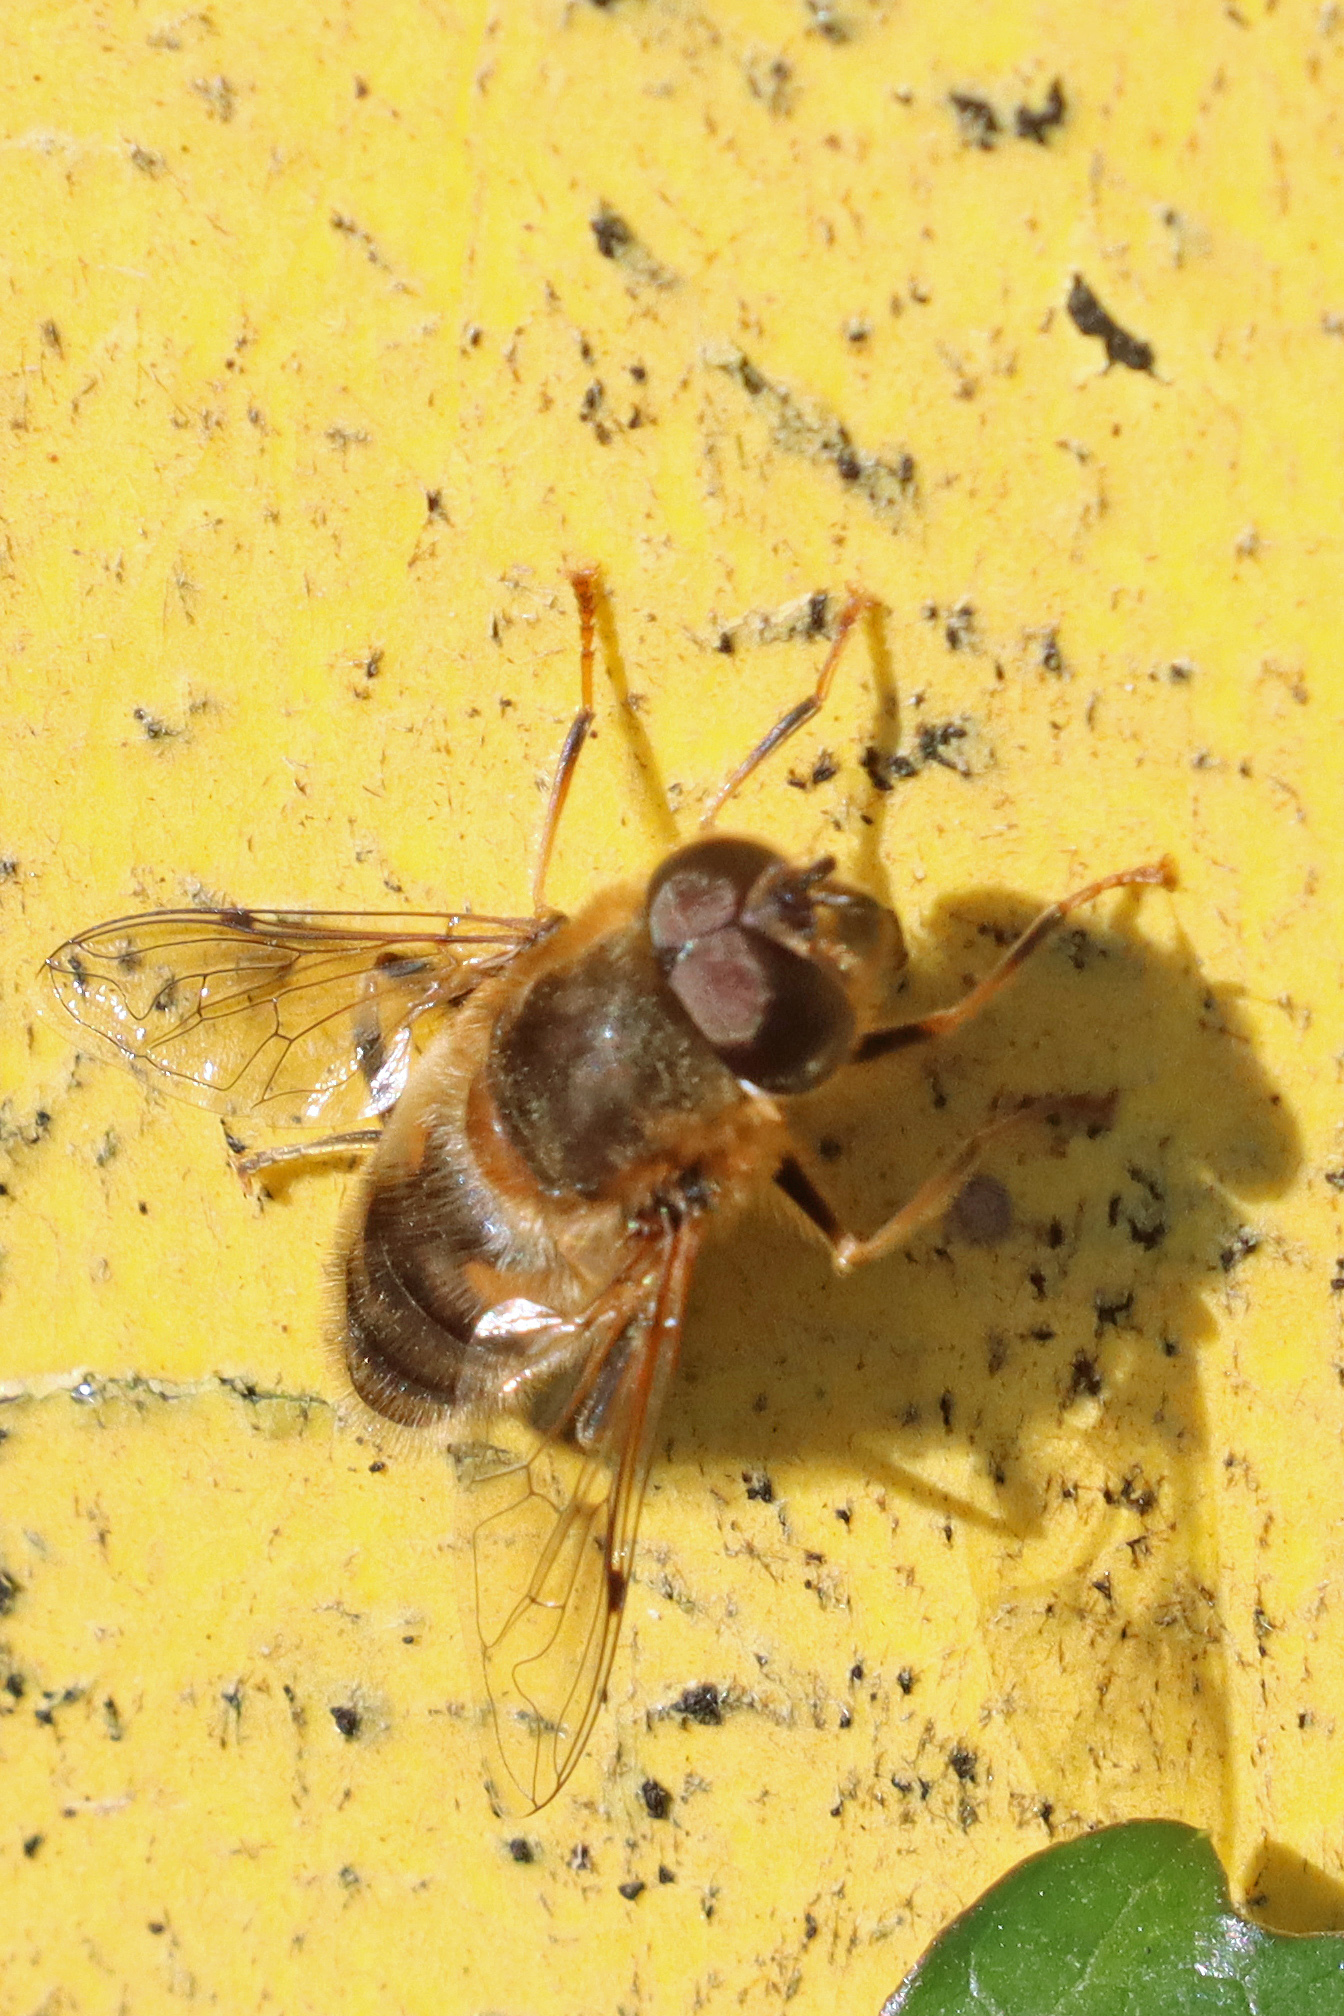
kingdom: Animalia
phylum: Arthropoda
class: Insecta
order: Diptera
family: Syrphidae
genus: Eristalis
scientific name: Eristalis pertinax
